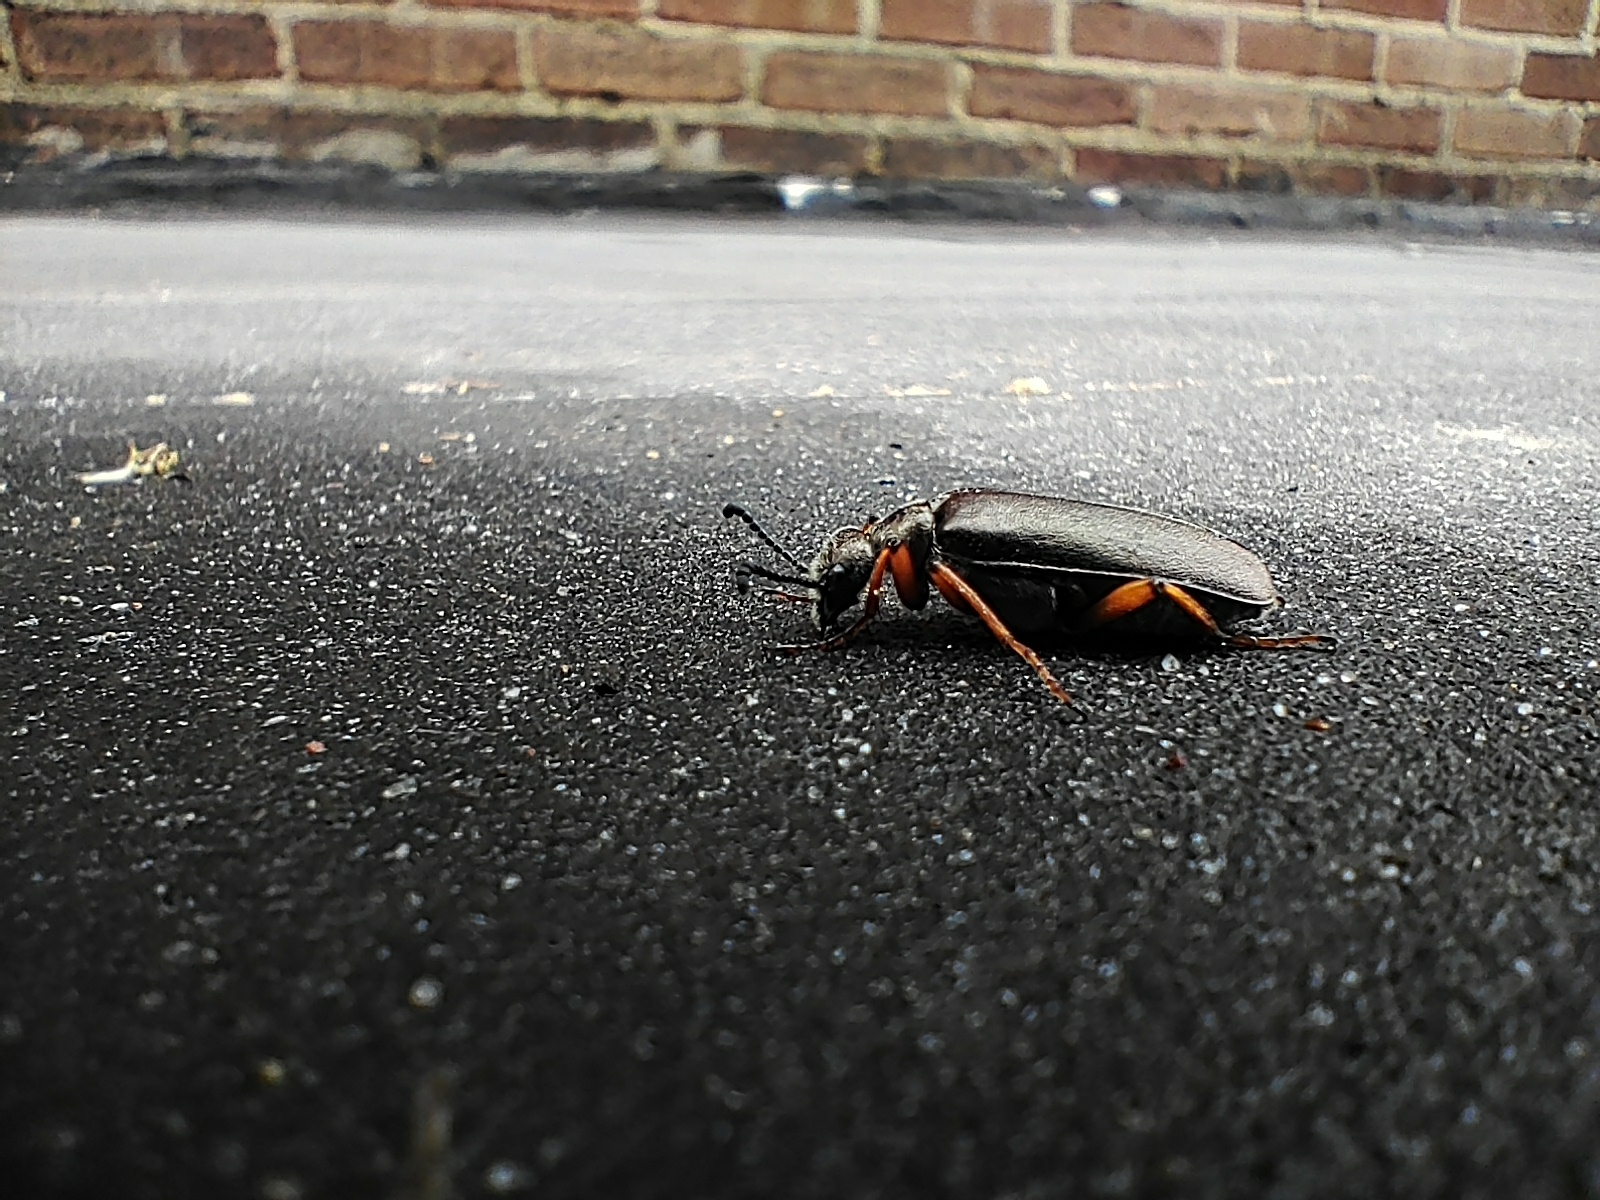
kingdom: Animalia
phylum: Arthropoda
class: Insecta
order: Coleoptera
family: Meloidae
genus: Lytta
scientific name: Lytta aenea
